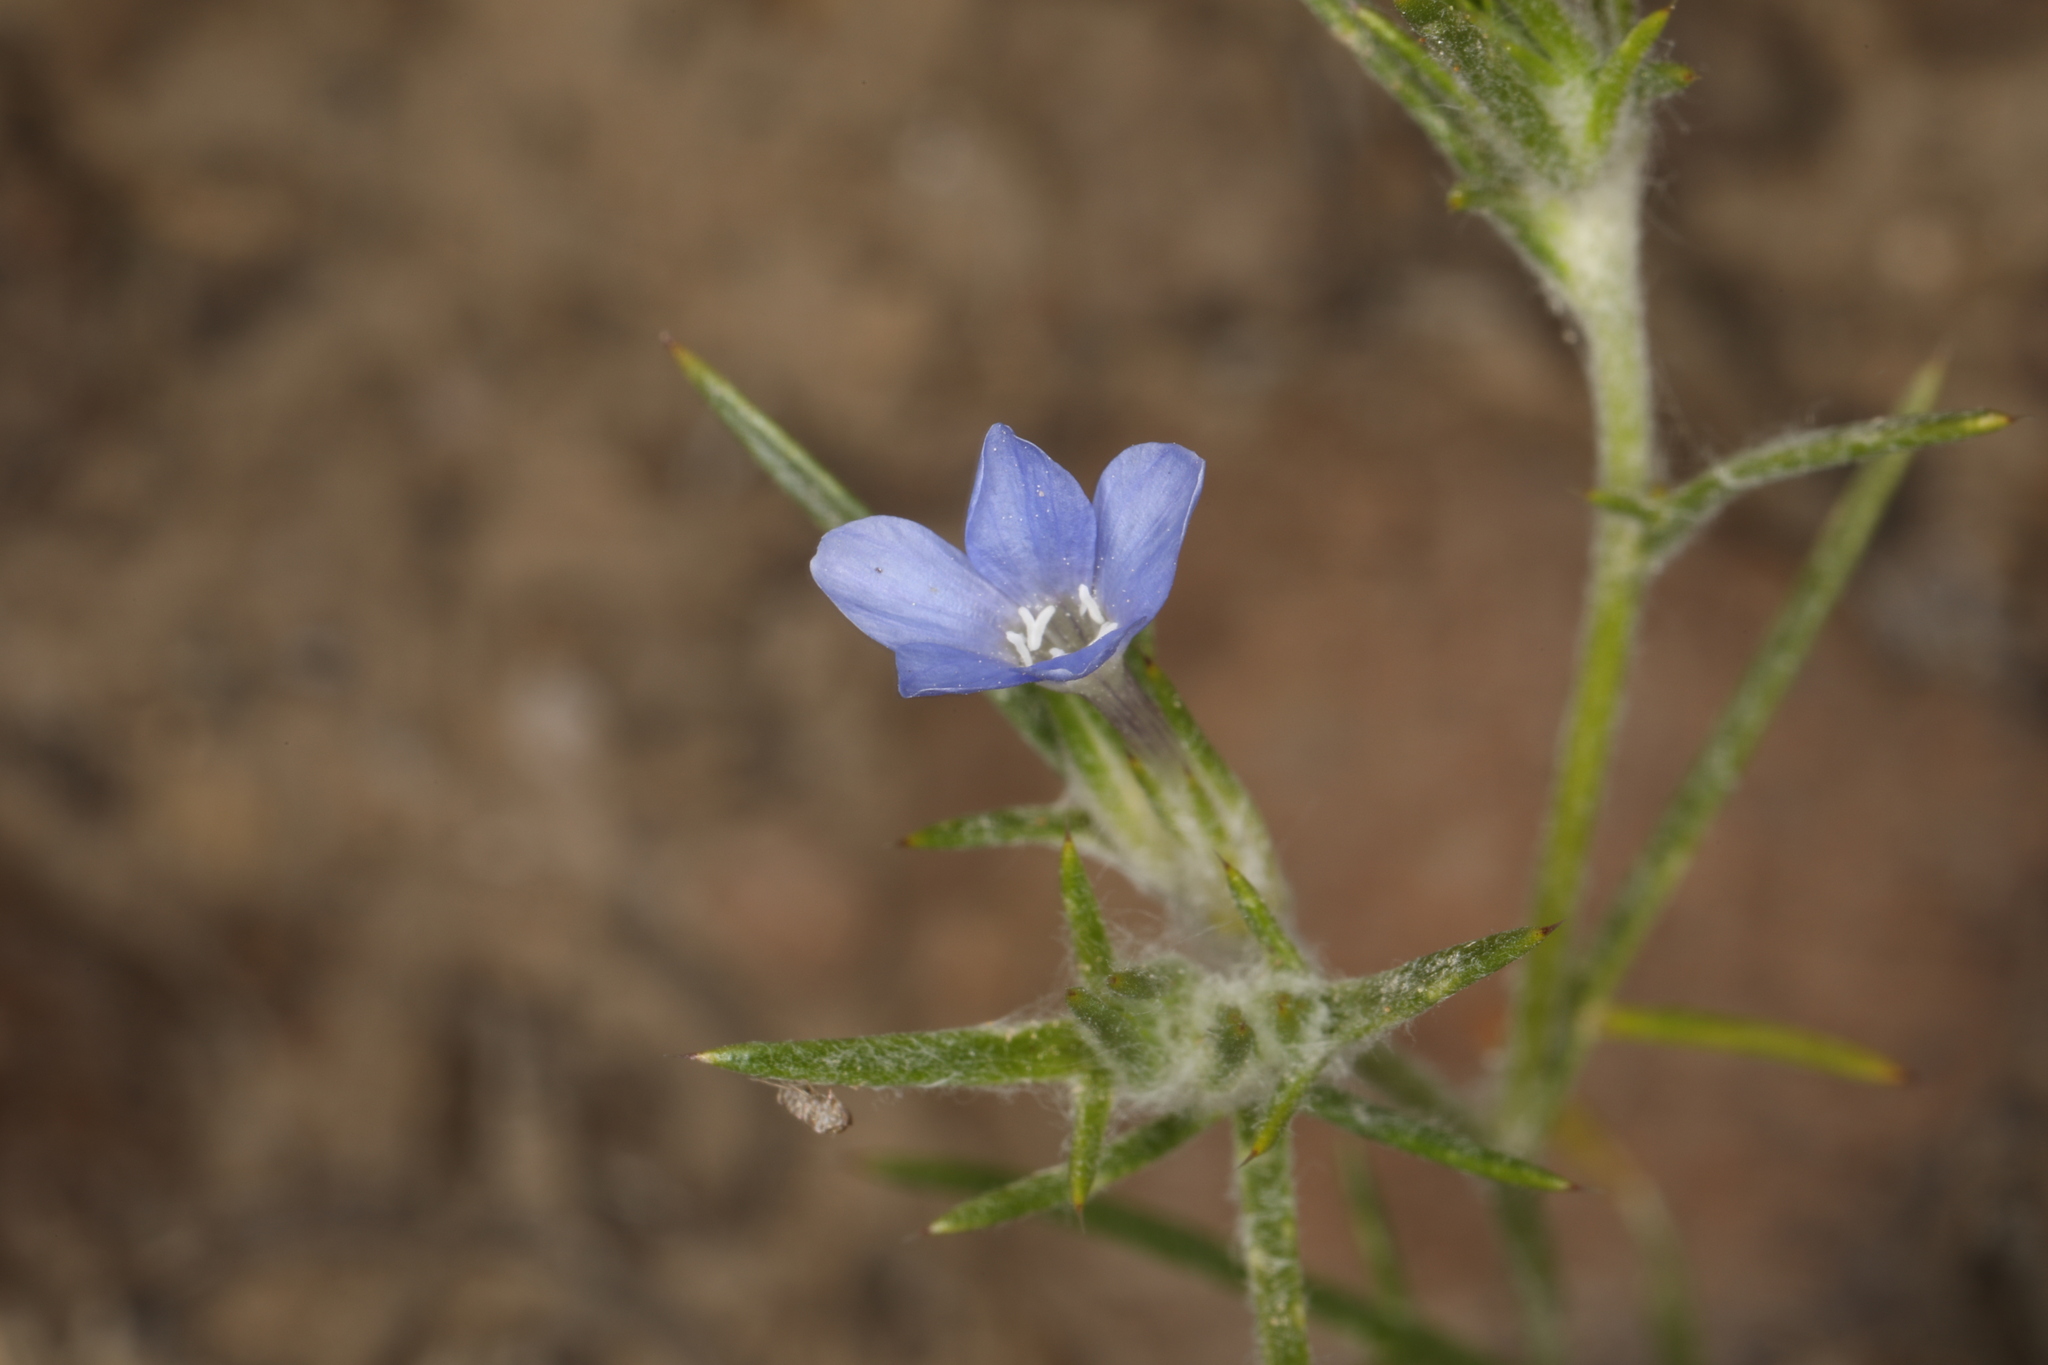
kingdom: Plantae
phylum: Tracheophyta
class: Magnoliopsida
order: Ericales
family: Polemoniaceae
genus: Eriastrum
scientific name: Eriastrum wilcoxii
